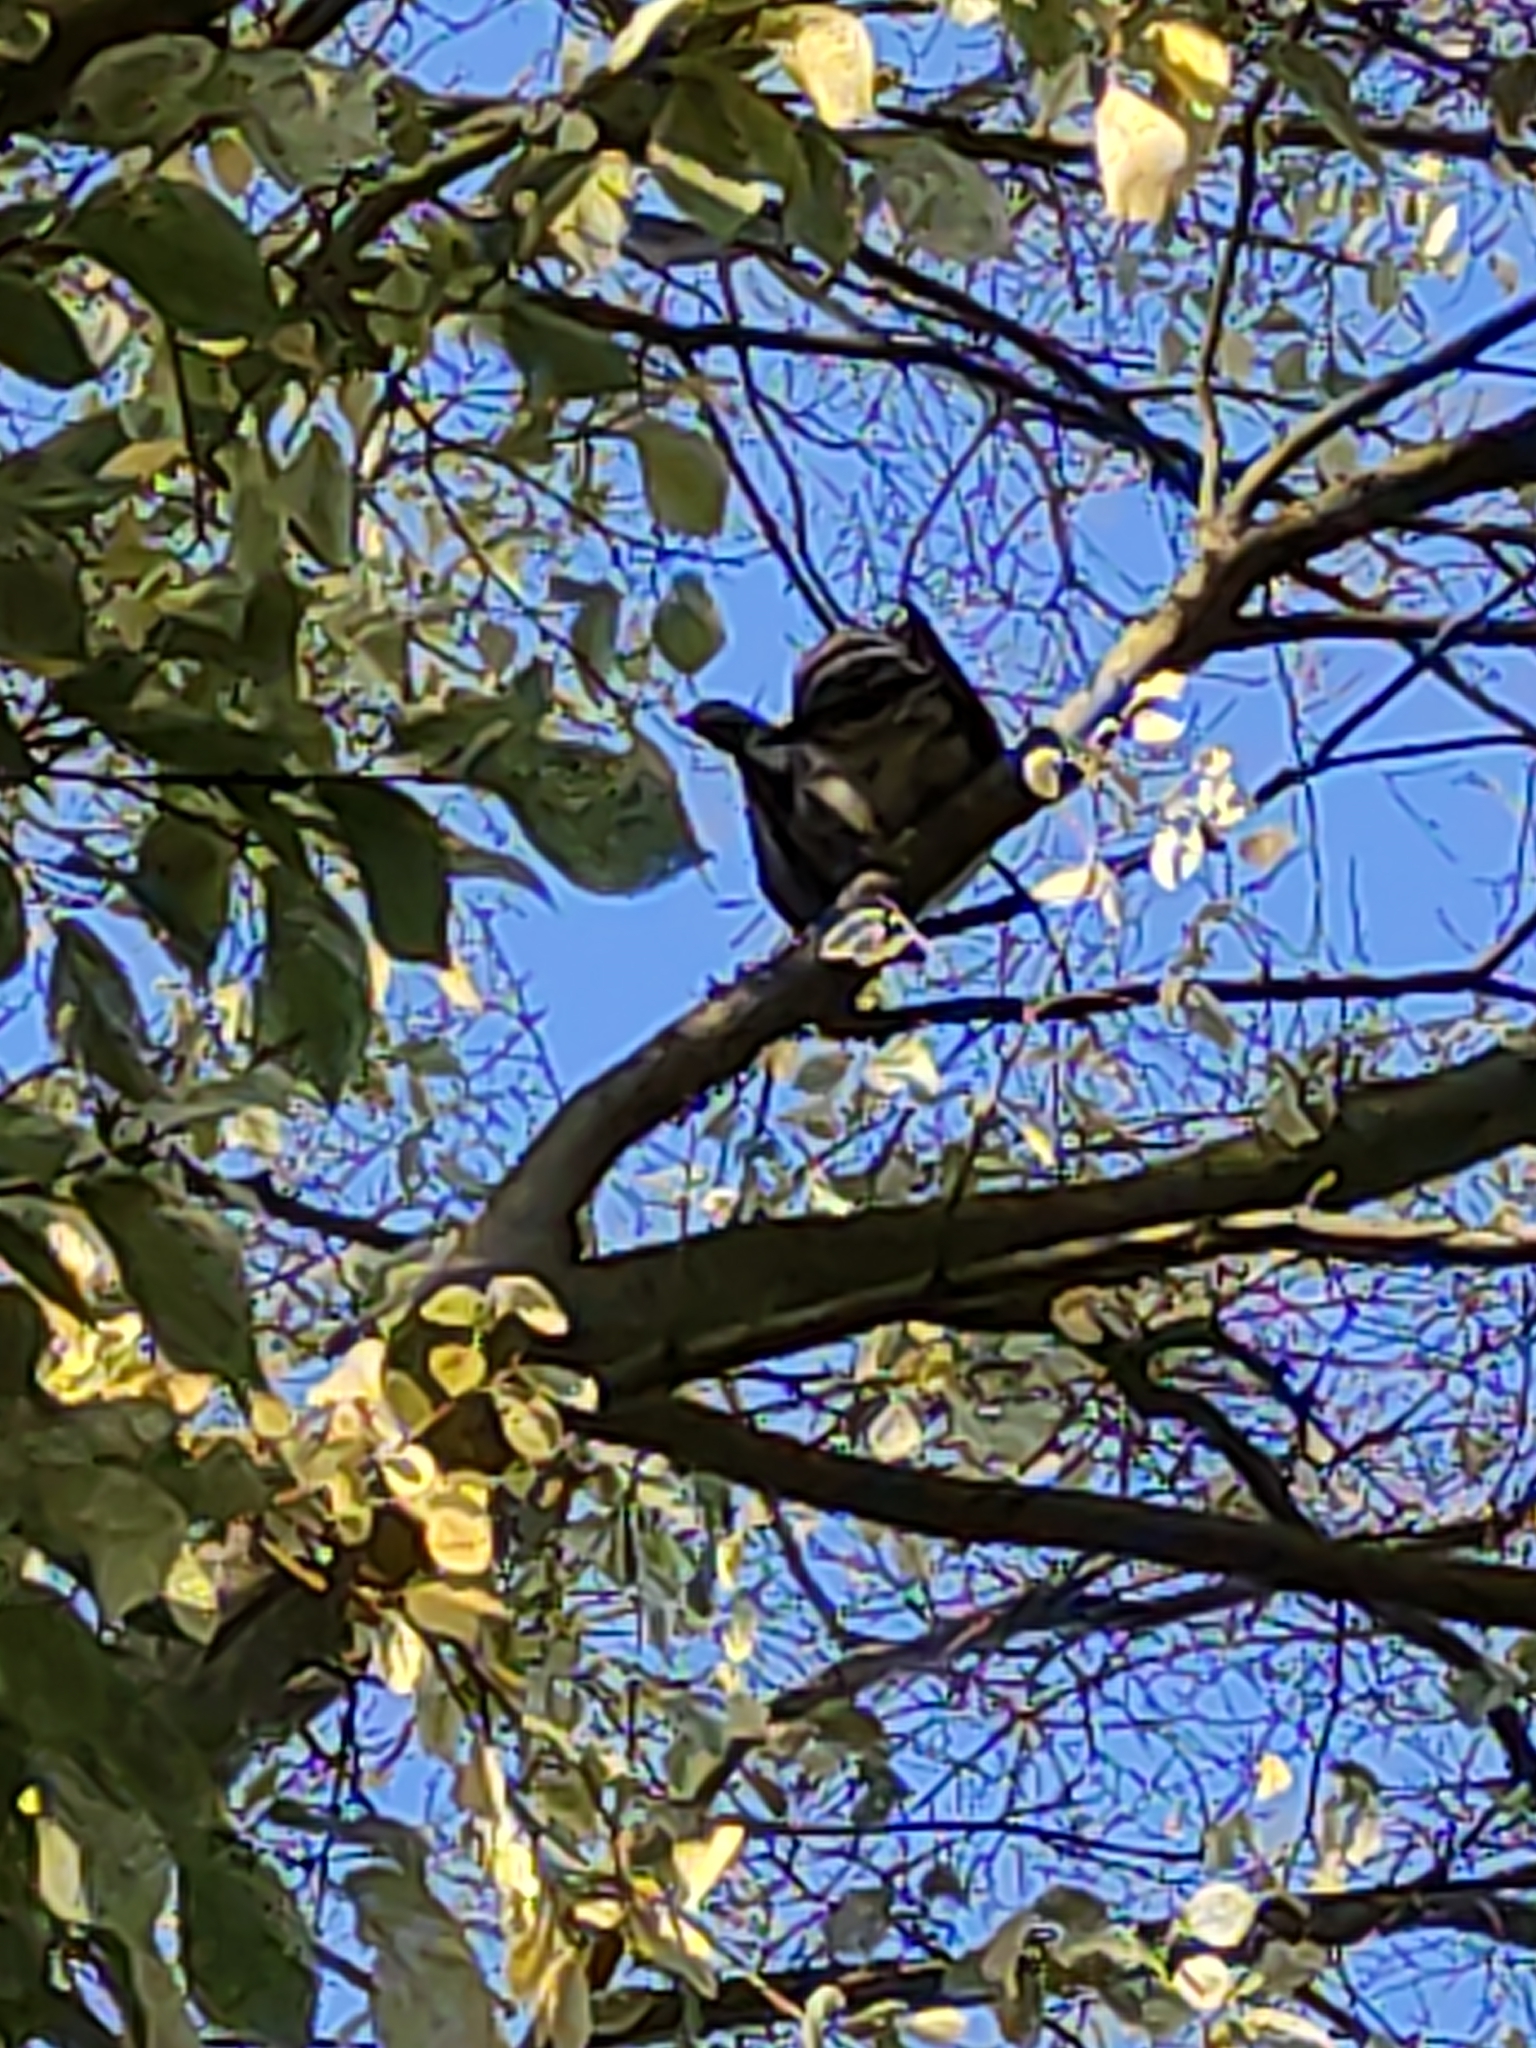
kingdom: Animalia
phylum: Chordata
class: Aves
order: Columbiformes
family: Columbidae
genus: Hemiphaga
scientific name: Hemiphaga novaeseelandiae
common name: New zealand pigeon
